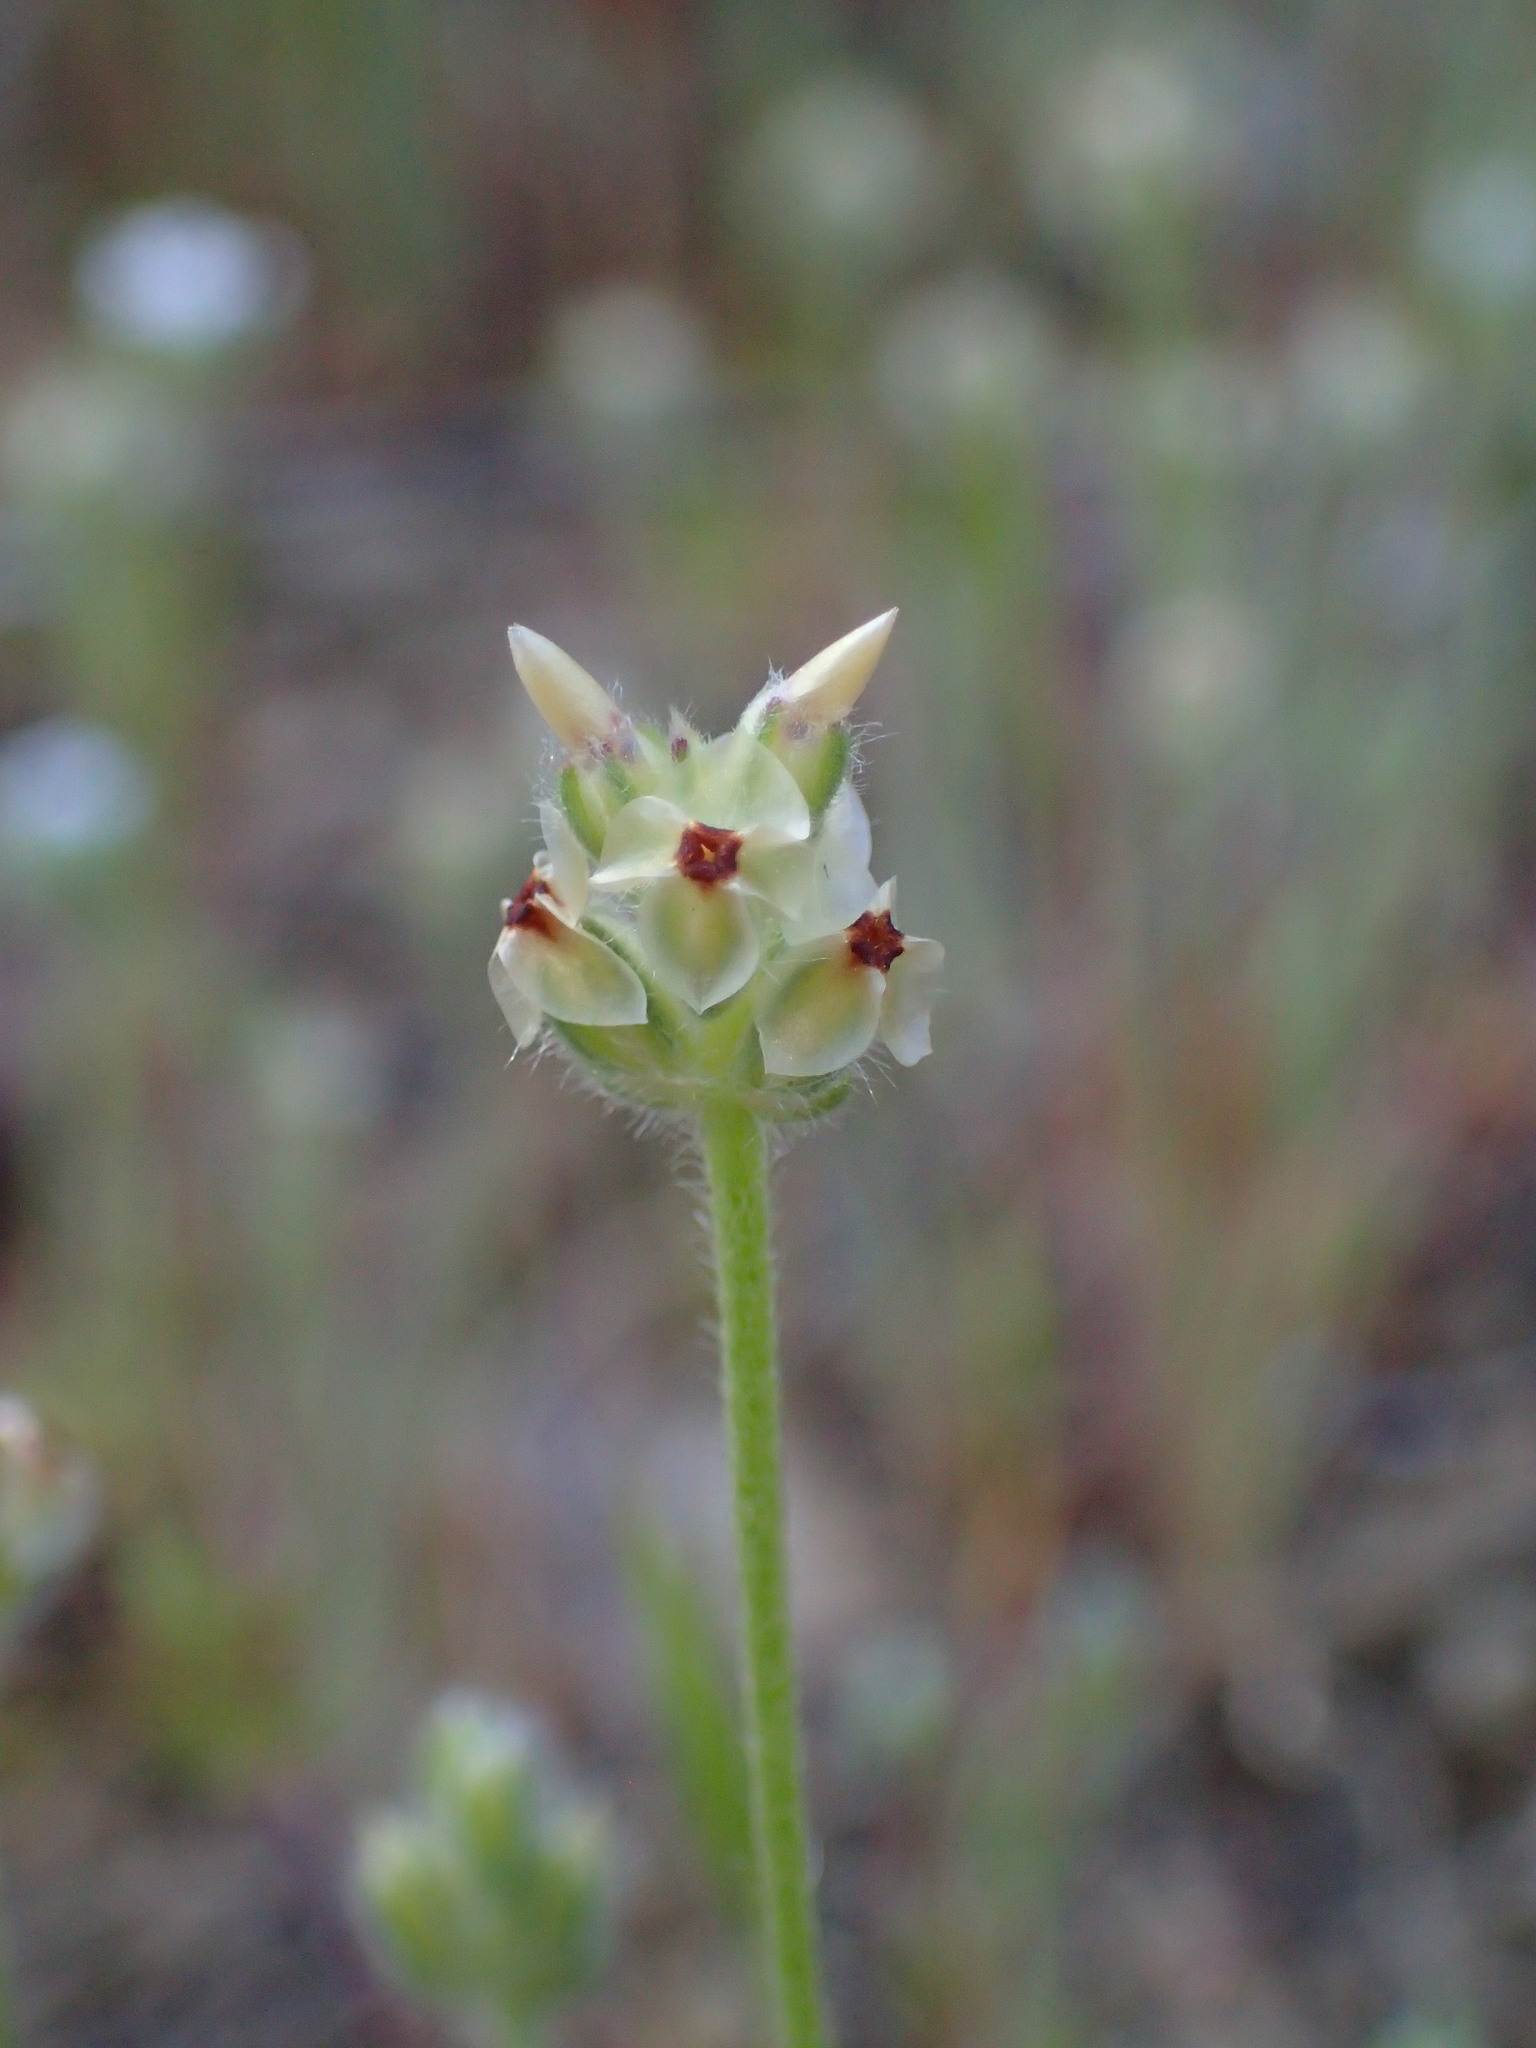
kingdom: Plantae
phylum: Tracheophyta
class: Magnoliopsida
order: Lamiales
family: Plantaginaceae
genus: Plantago
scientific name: Plantago erecta
